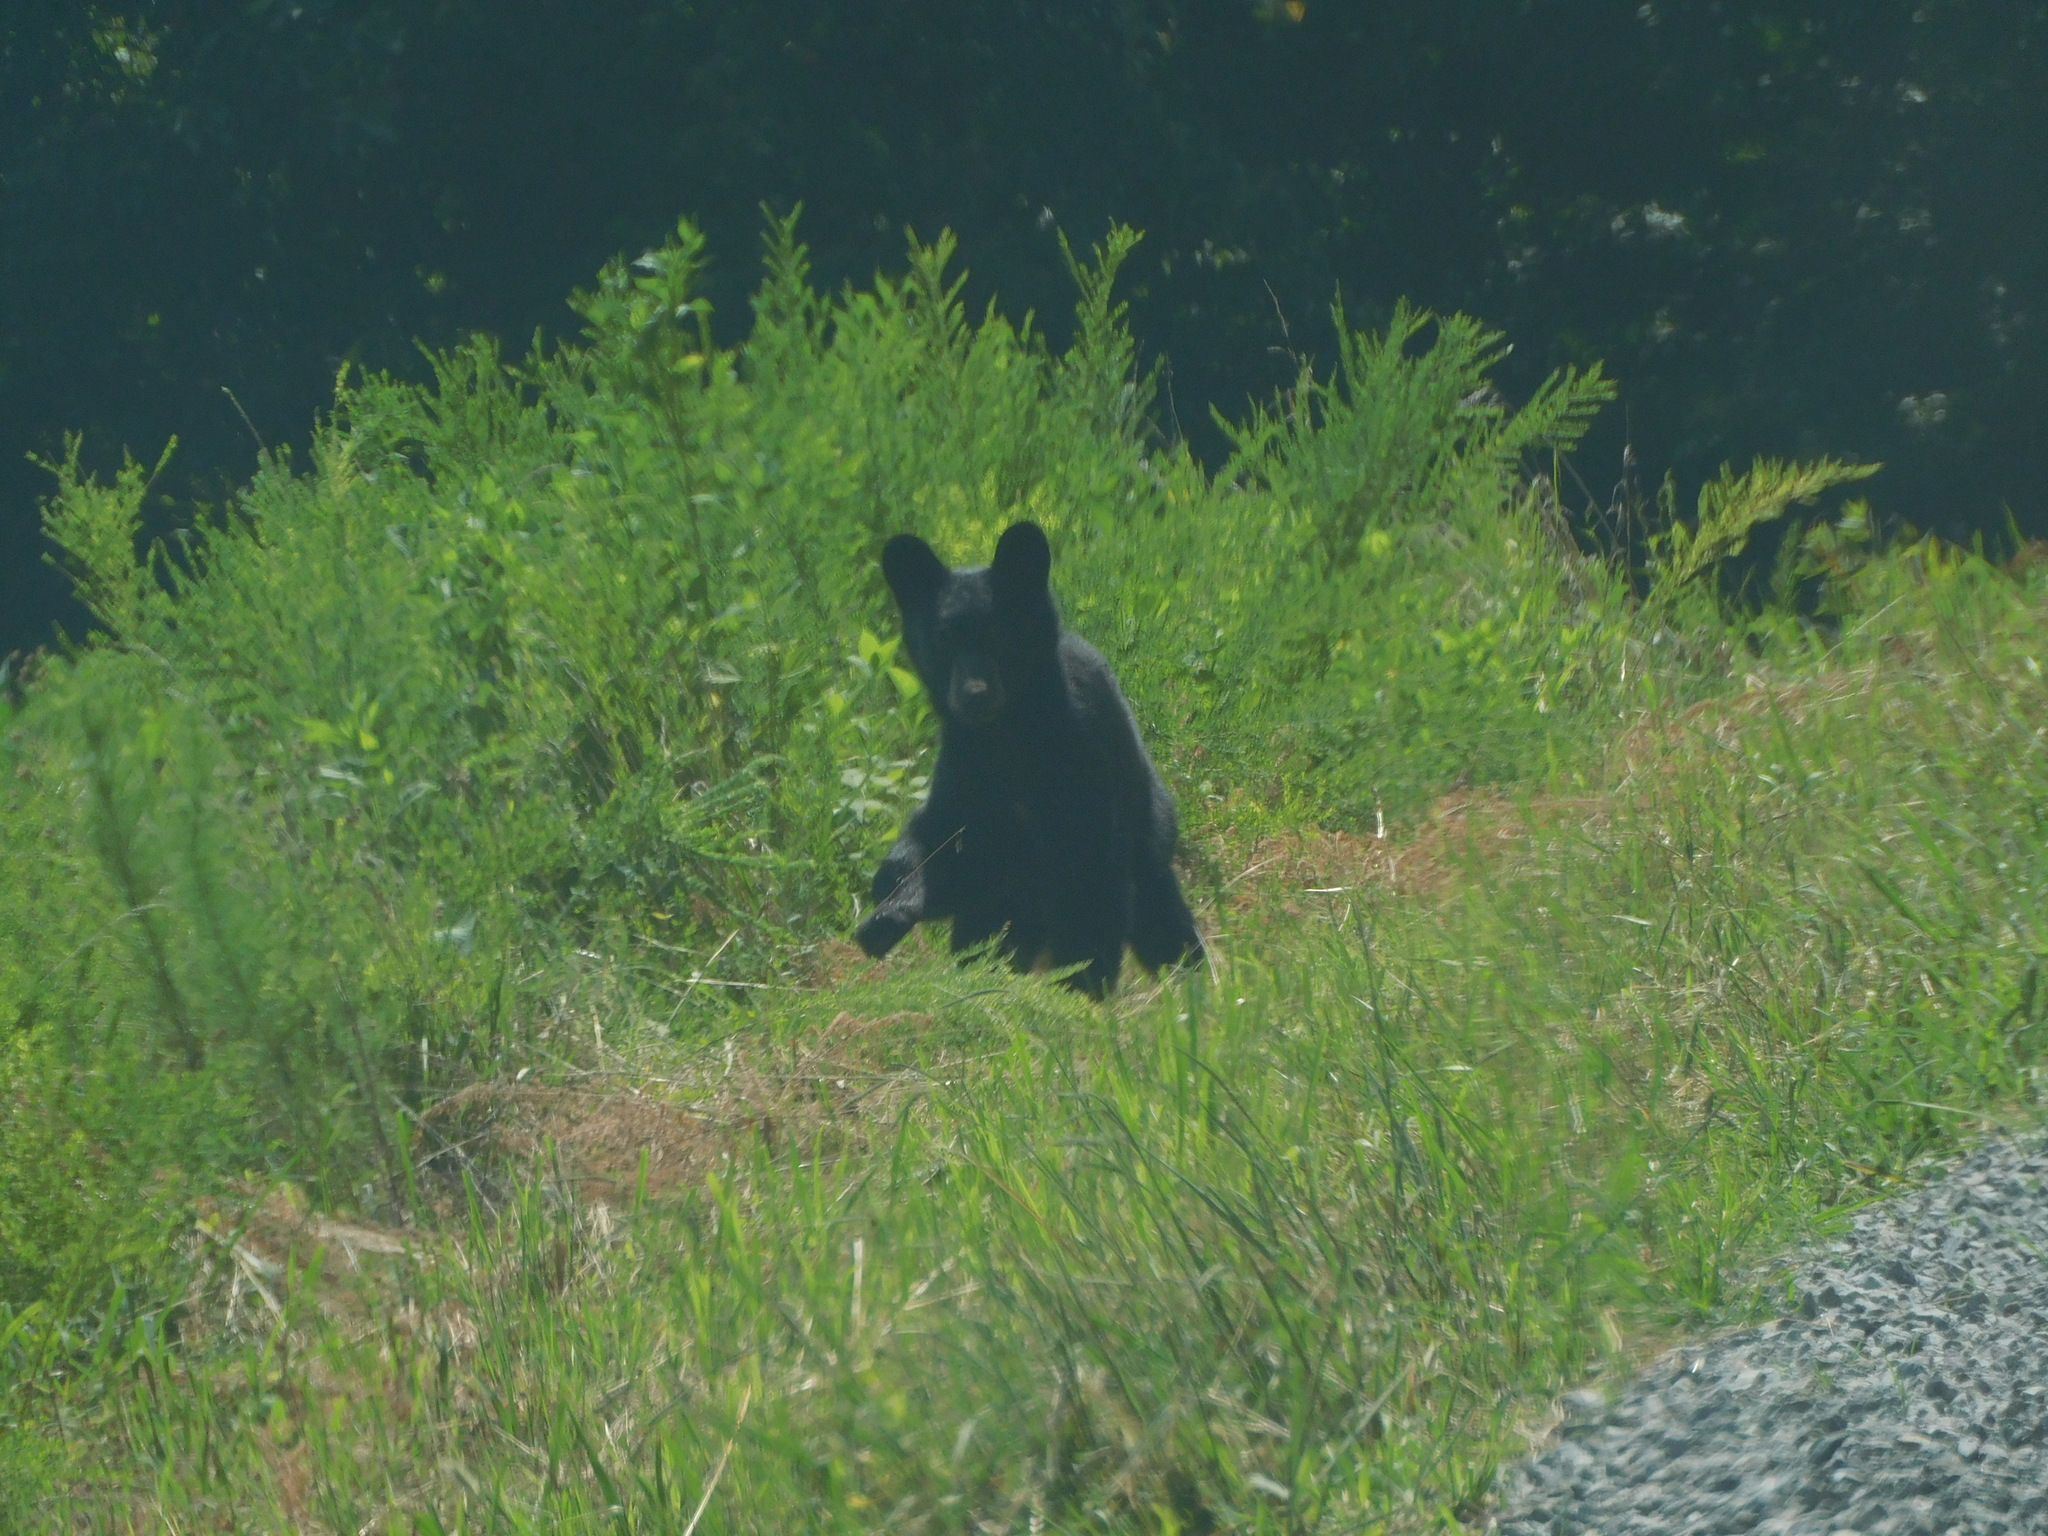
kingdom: Animalia
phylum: Chordata
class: Mammalia
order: Carnivora
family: Ursidae
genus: Ursus
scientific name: Ursus americanus
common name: American black bear
